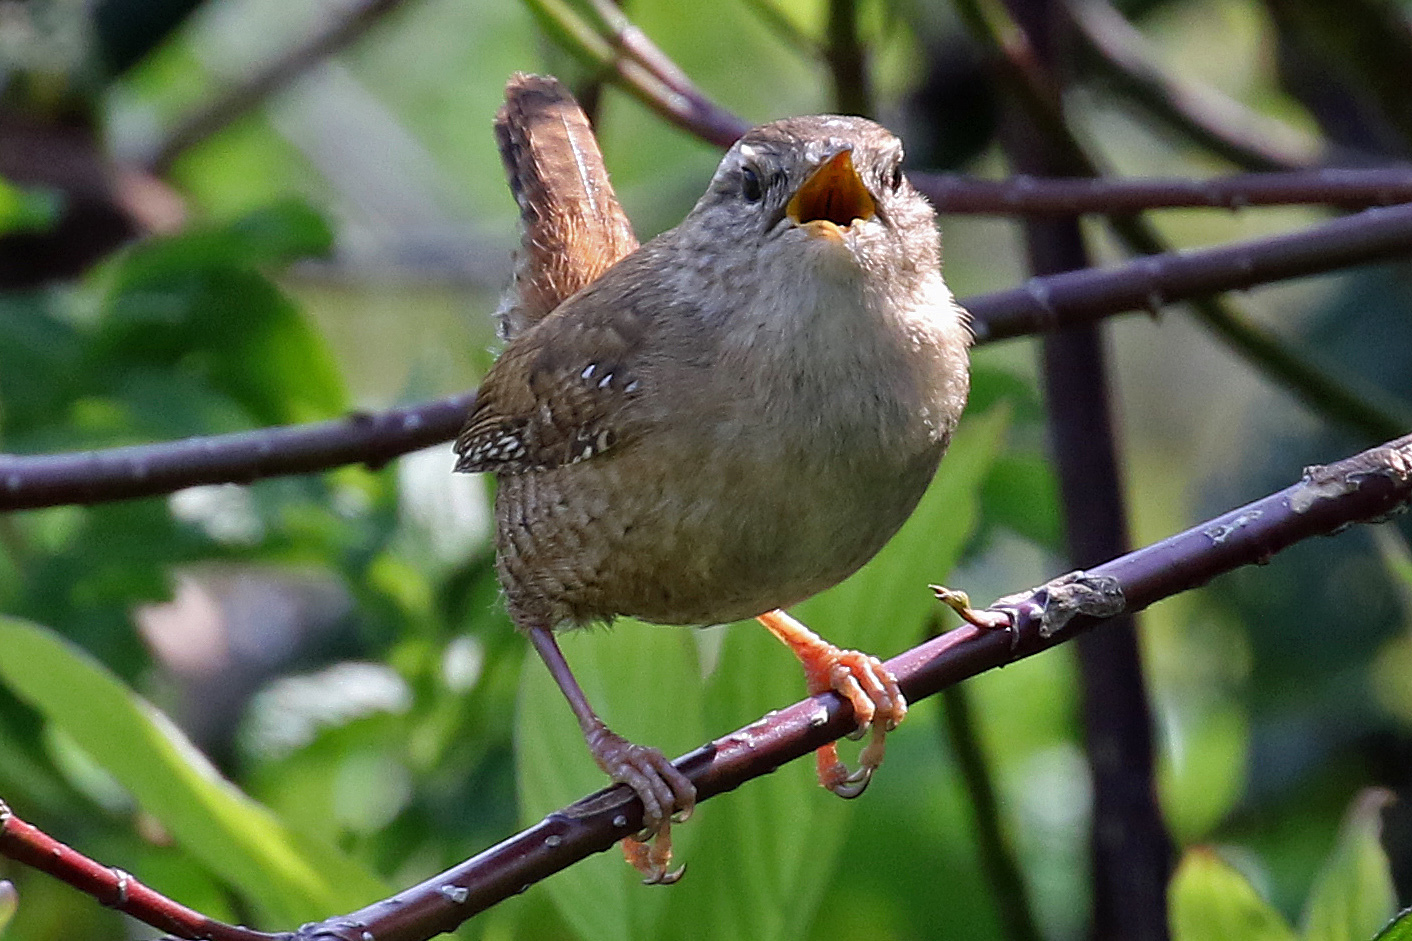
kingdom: Animalia
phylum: Chordata
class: Aves
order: Passeriformes
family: Troglodytidae
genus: Troglodytes
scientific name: Troglodytes troglodytes
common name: Eurasian wren
